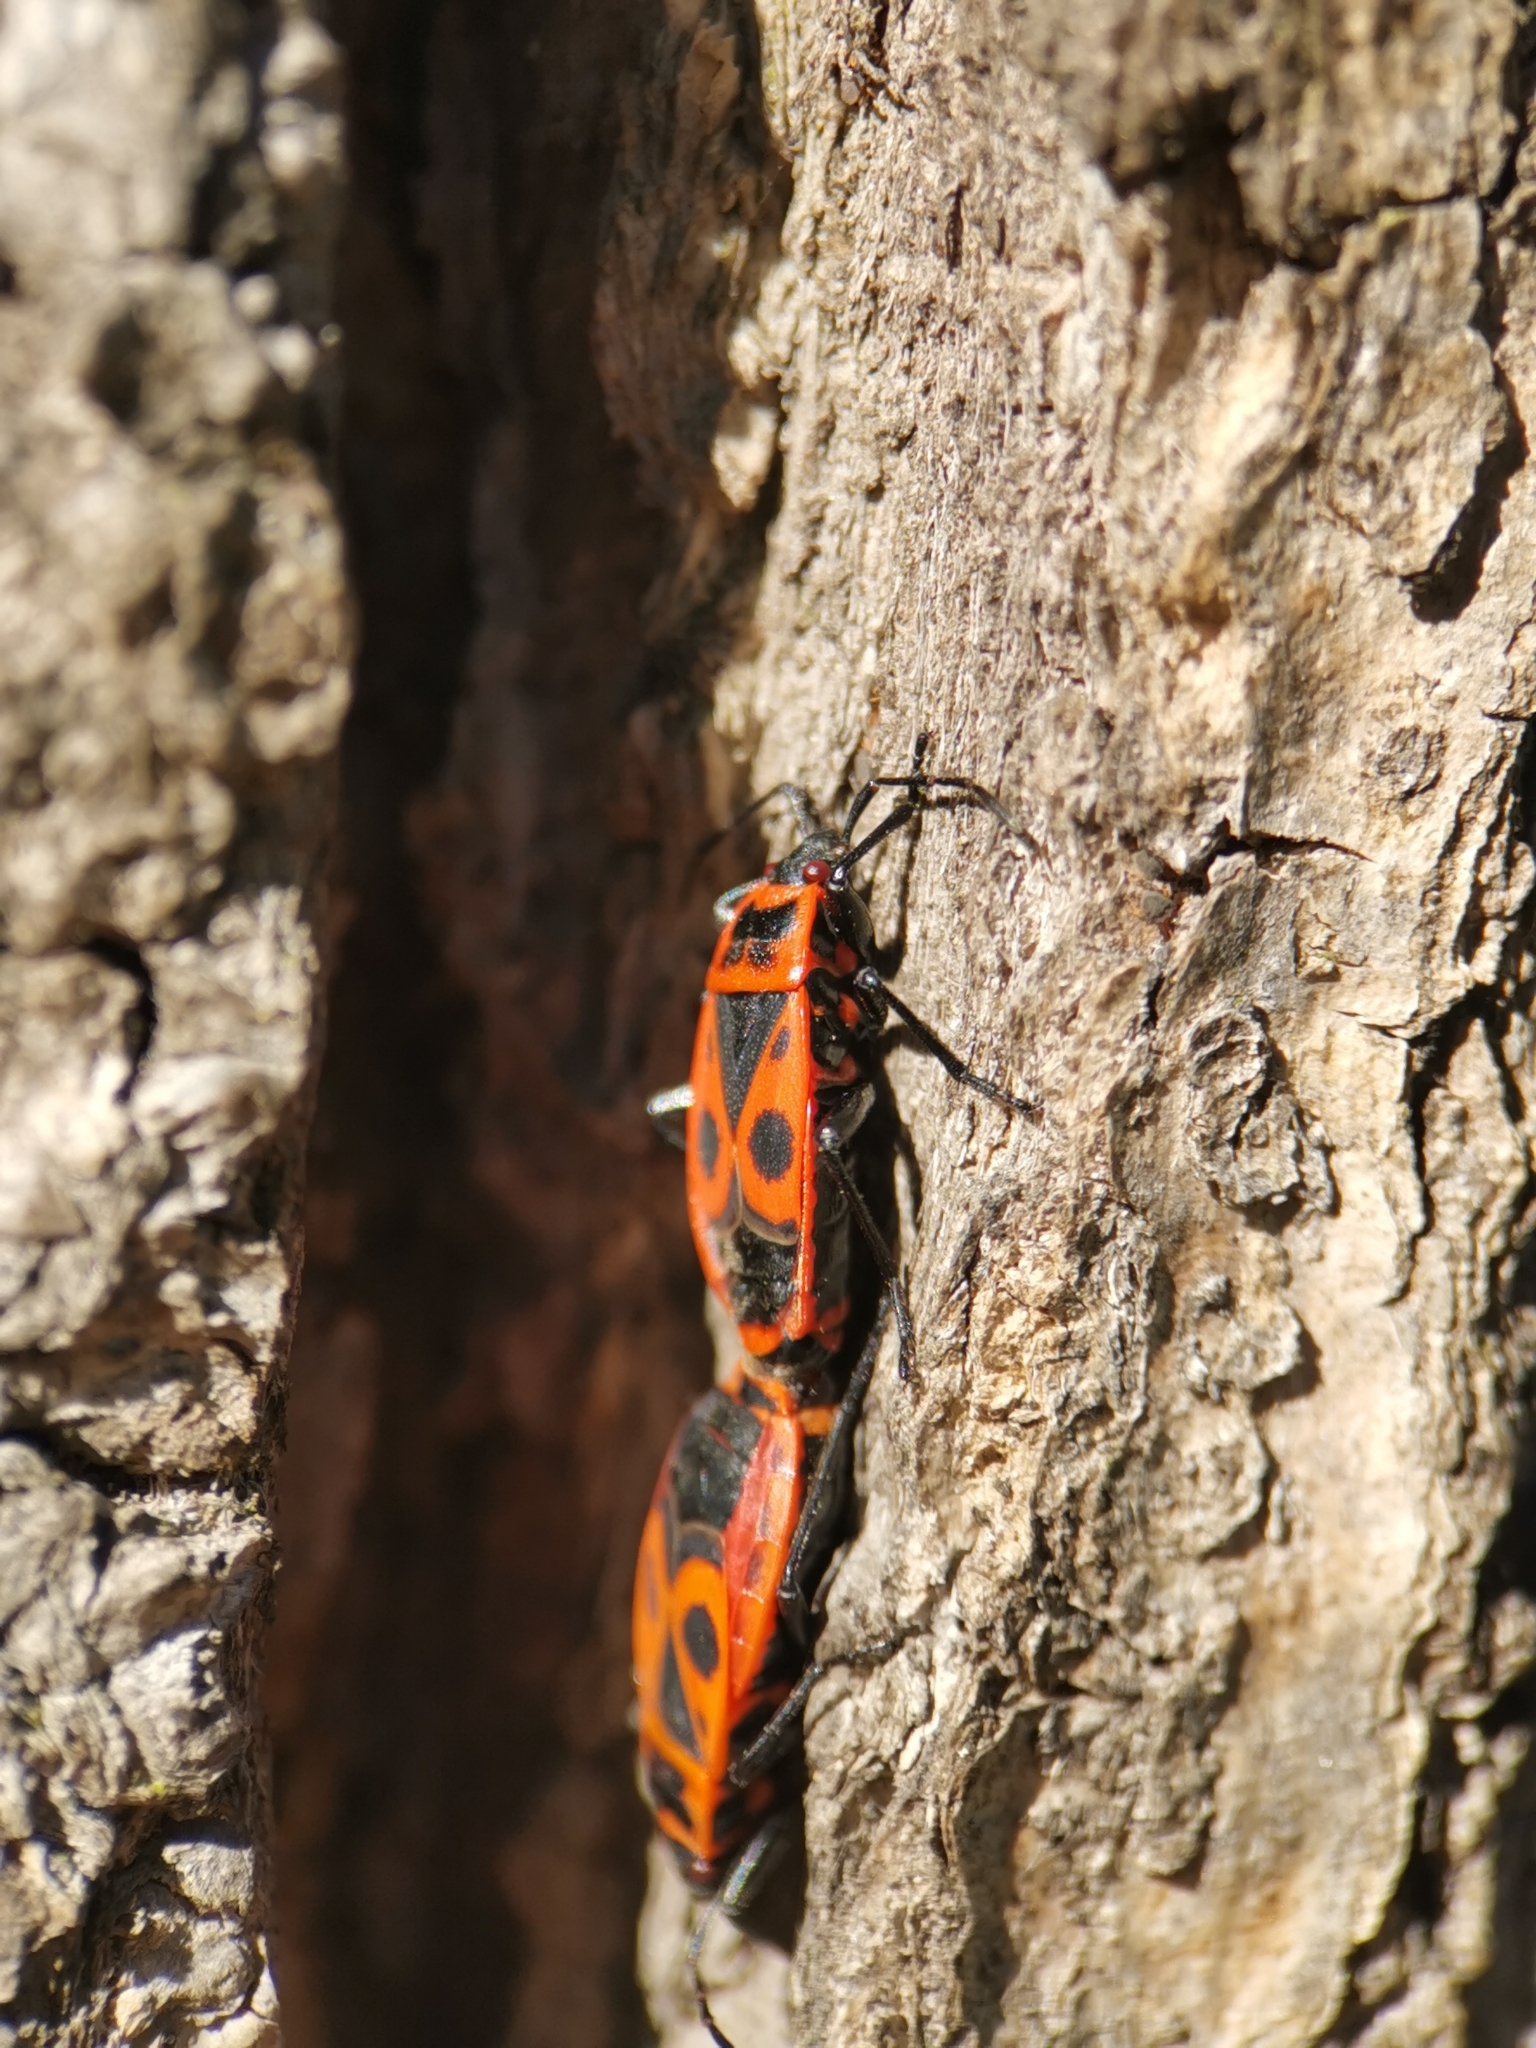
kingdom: Animalia
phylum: Arthropoda
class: Insecta
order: Hemiptera
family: Pyrrhocoridae
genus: Pyrrhocoris
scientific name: Pyrrhocoris apterus
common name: Firebug
